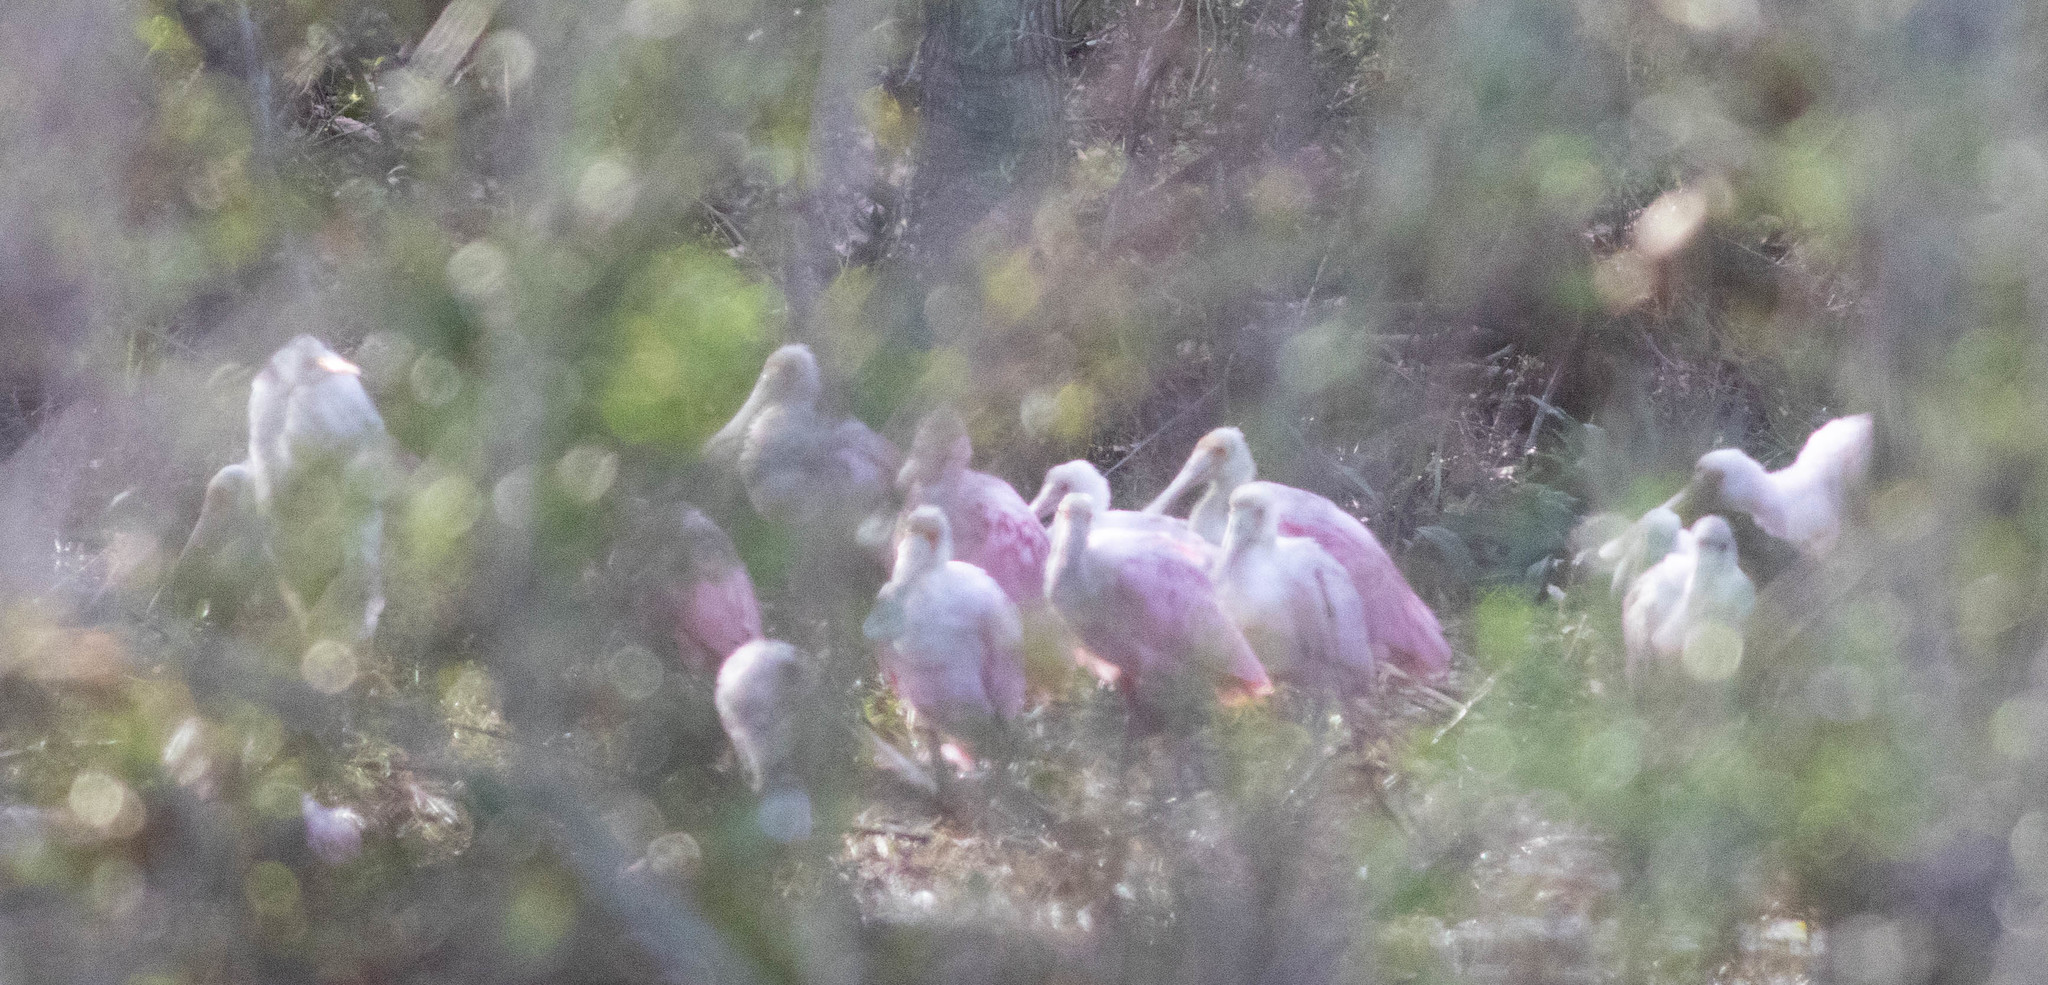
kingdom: Animalia
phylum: Chordata
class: Aves
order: Pelecaniformes
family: Threskiornithidae
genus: Platalea
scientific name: Platalea ajaja
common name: Roseate spoonbill
